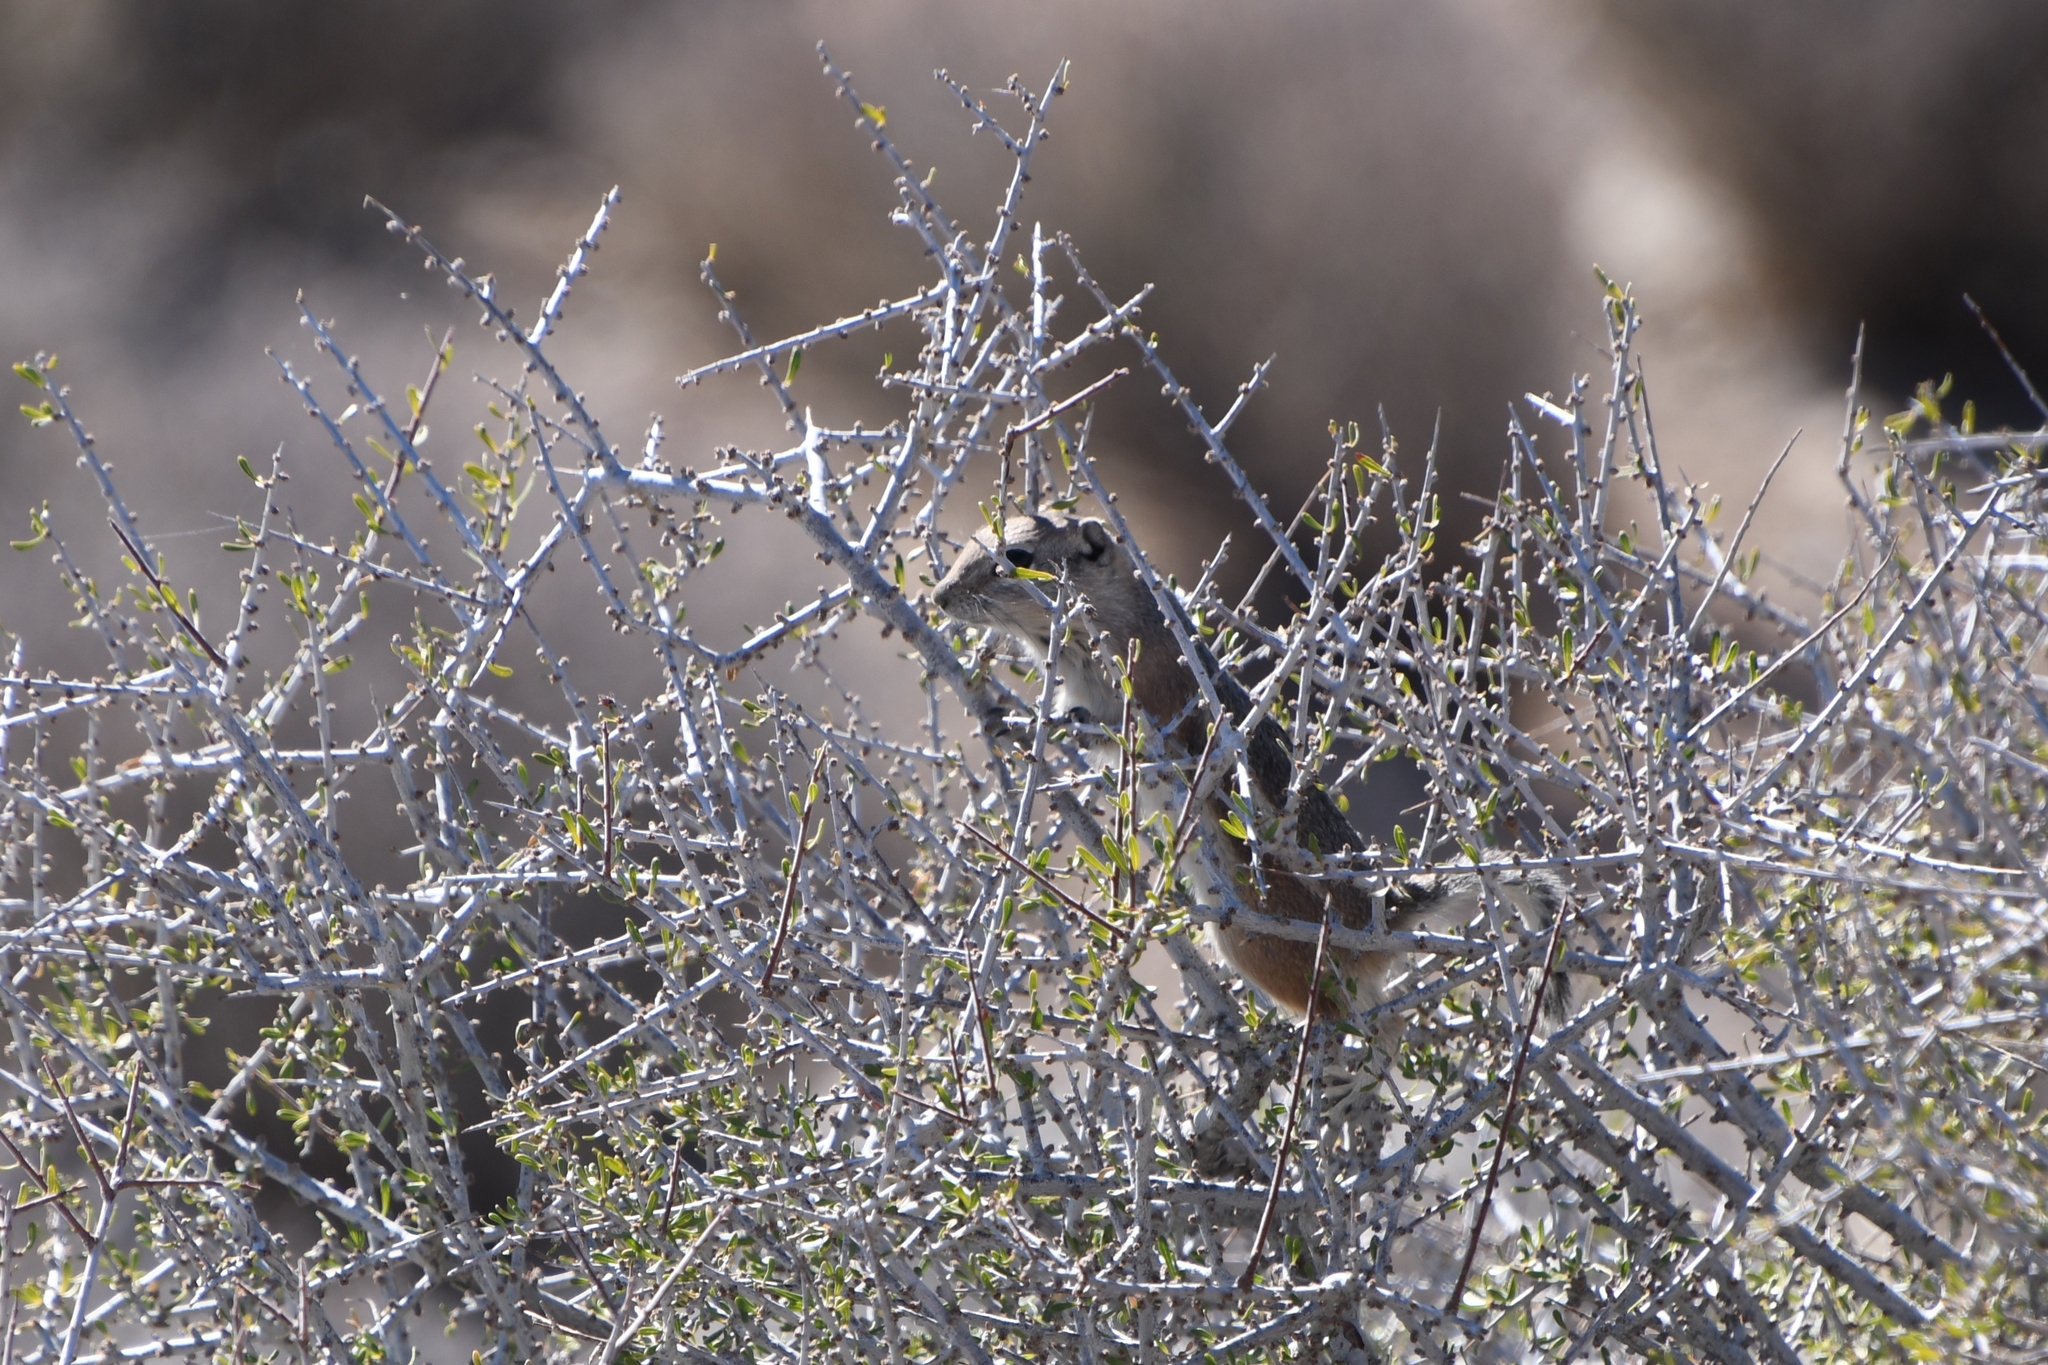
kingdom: Animalia
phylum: Chordata
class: Mammalia
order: Rodentia
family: Sciuridae
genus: Ammospermophilus
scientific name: Ammospermophilus leucurus
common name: White-tailed antelope squirrel
